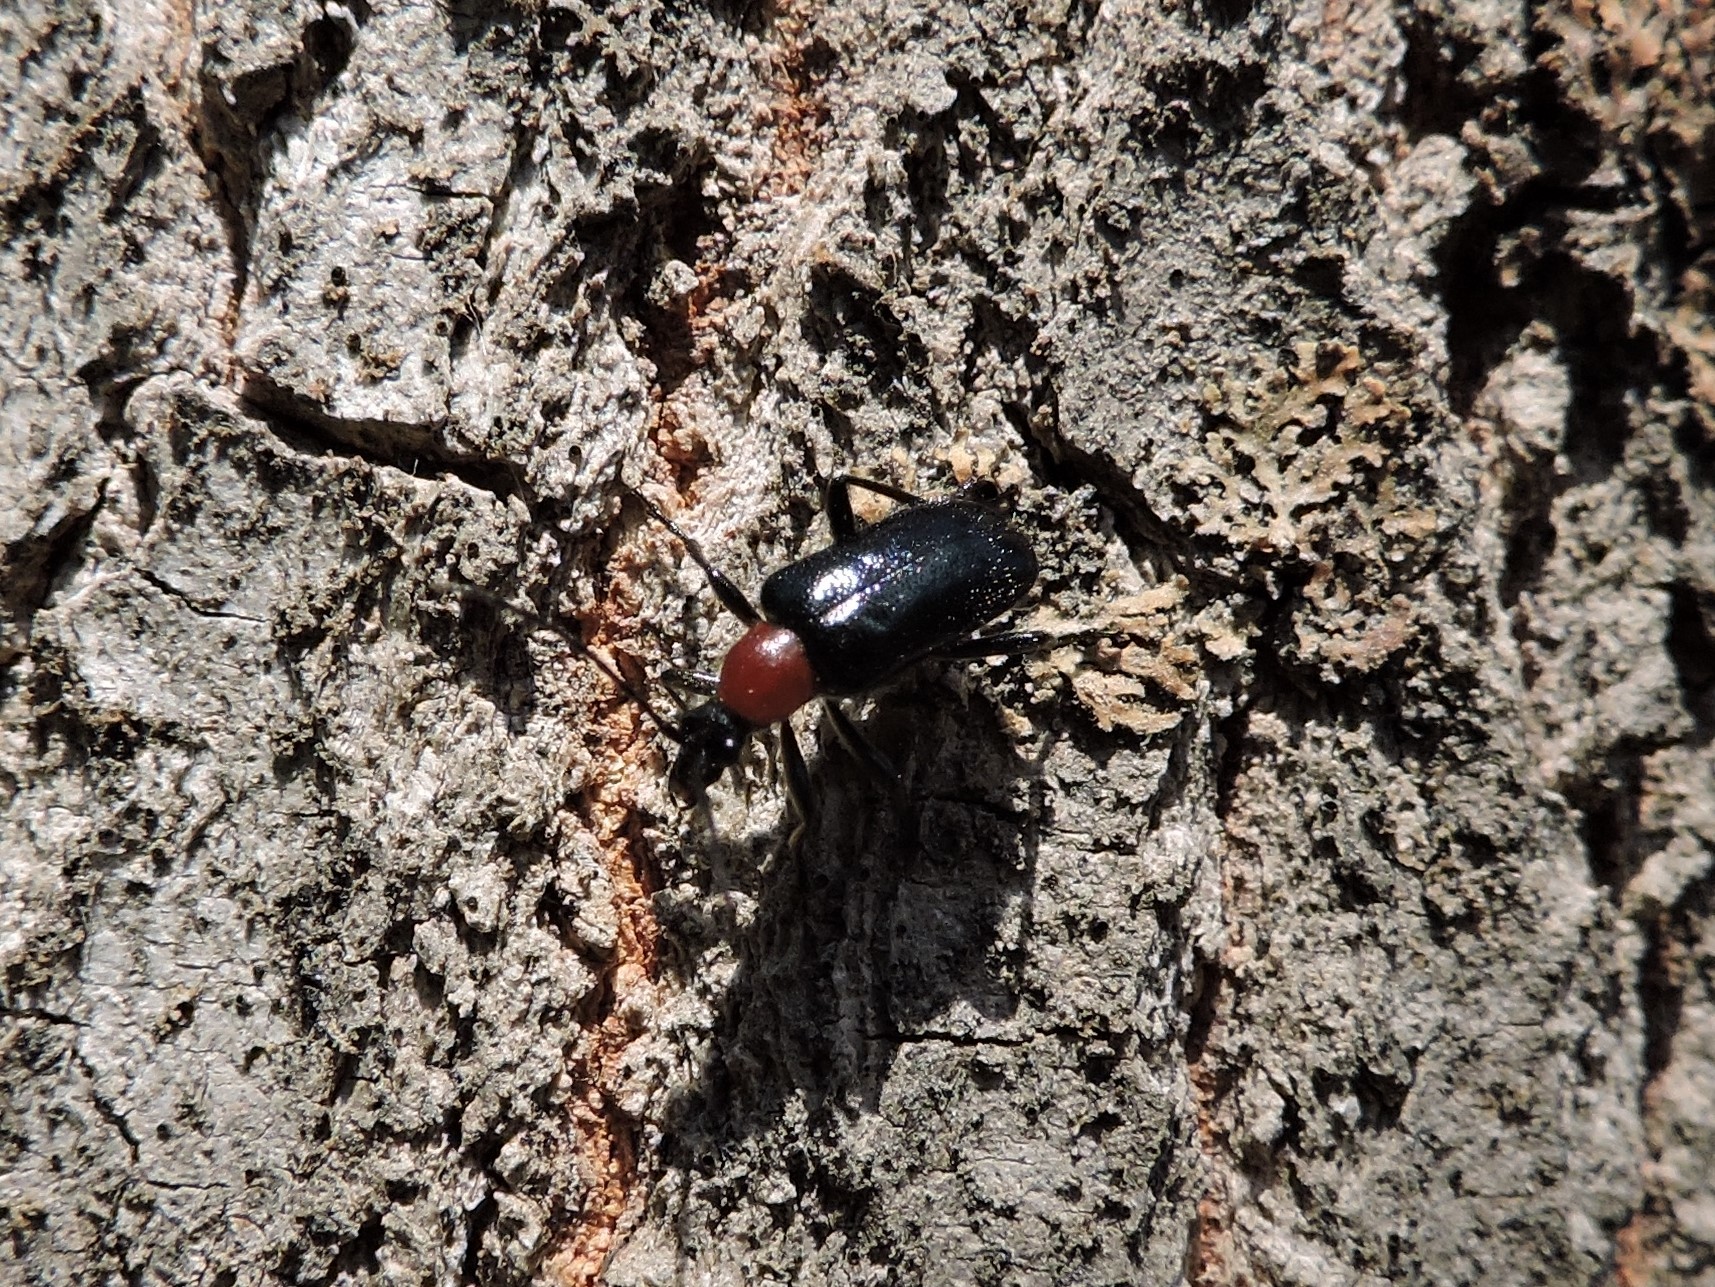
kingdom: Animalia
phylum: Arthropoda
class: Insecta
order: Coleoptera
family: Cerambycidae
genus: Dinoptera
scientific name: Dinoptera collaris
